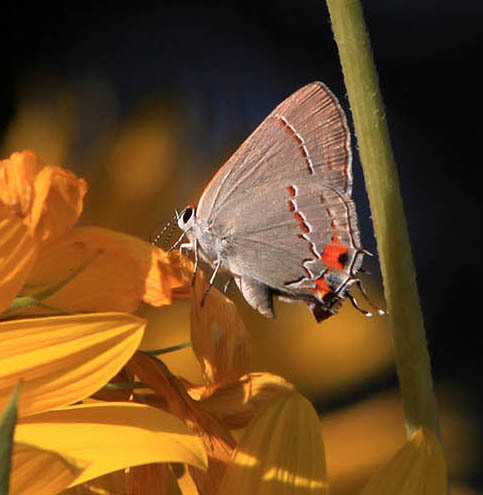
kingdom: Animalia
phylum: Arthropoda
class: Insecta
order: Lepidoptera
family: Lycaenidae
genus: Strymon
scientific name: Strymon melinus
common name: Gray hairstreak
